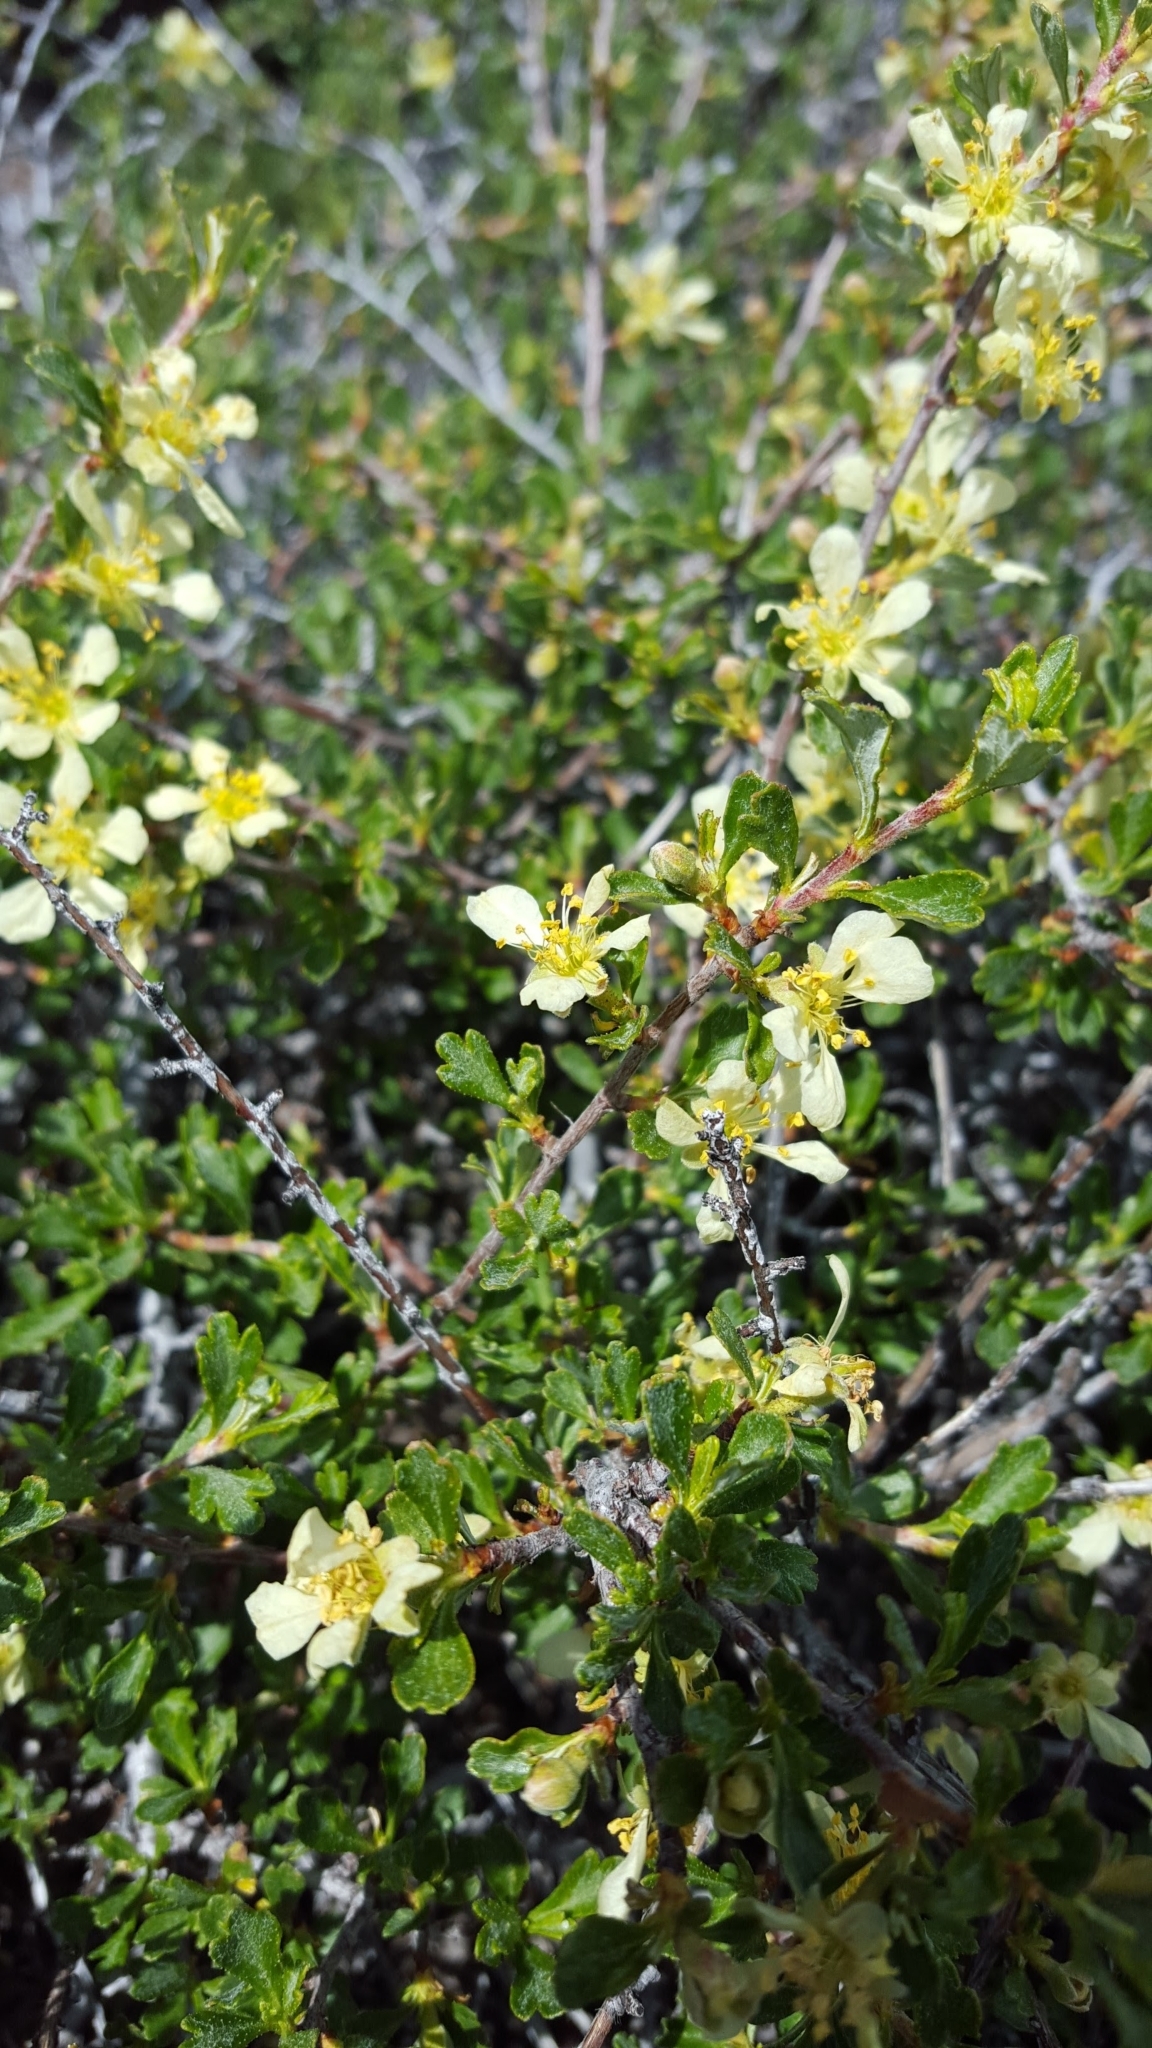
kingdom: Plantae
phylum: Tracheophyta
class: Magnoliopsida
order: Rosales
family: Rosaceae
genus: Purshia
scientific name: Purshia tridentata
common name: Antelope bitterbrush
